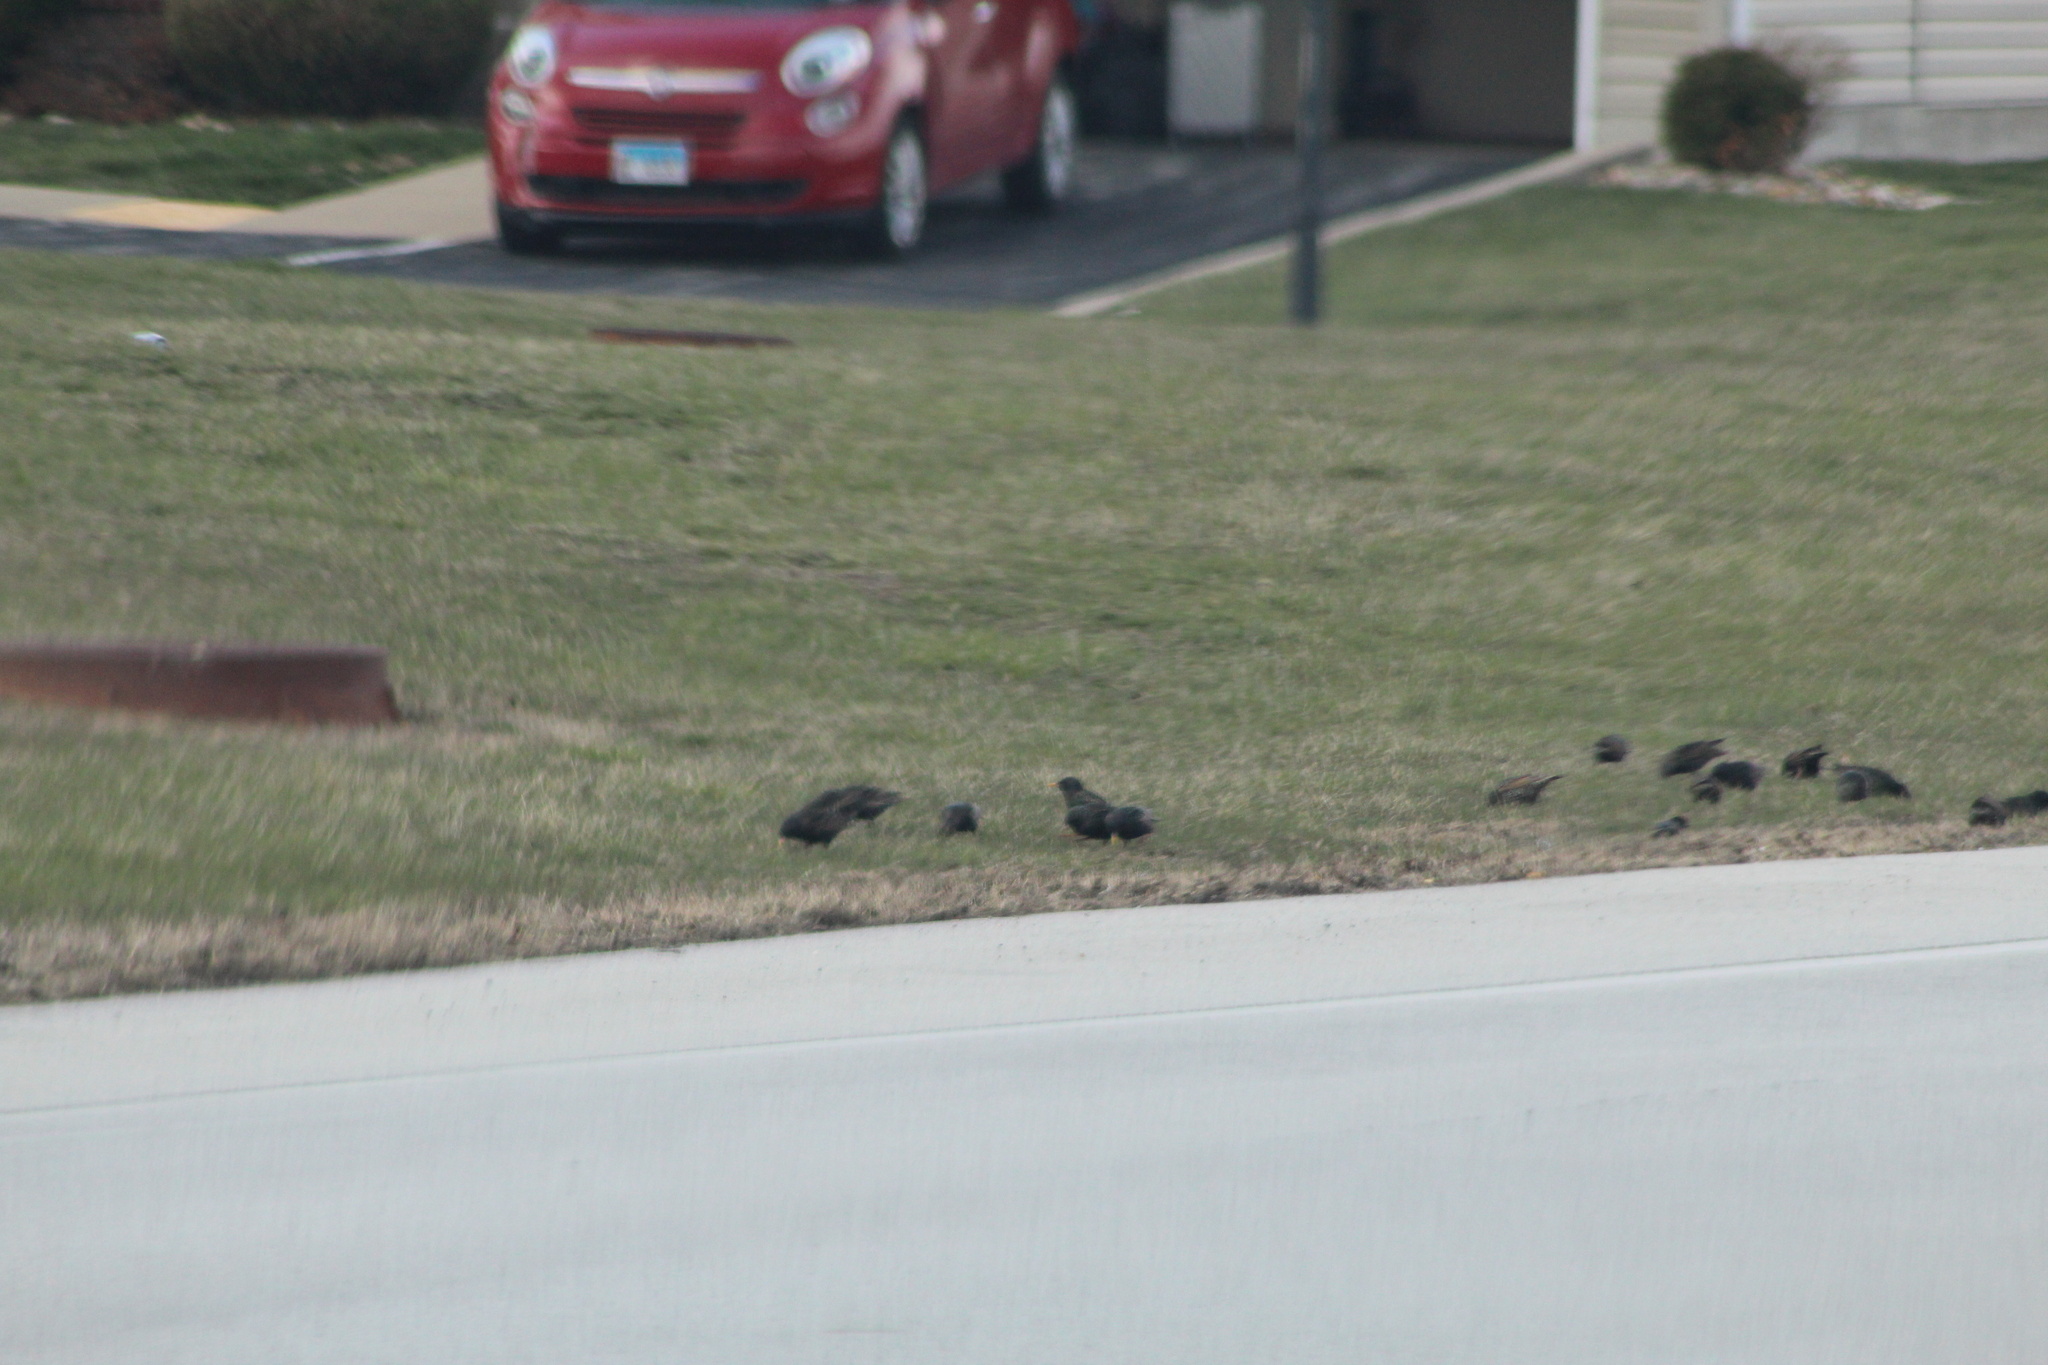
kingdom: Animalia
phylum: Chordata
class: Aves
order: Passeriformes
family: Sturnidae
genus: Sturnus
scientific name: Sturnus vulgaris
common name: Common starling
